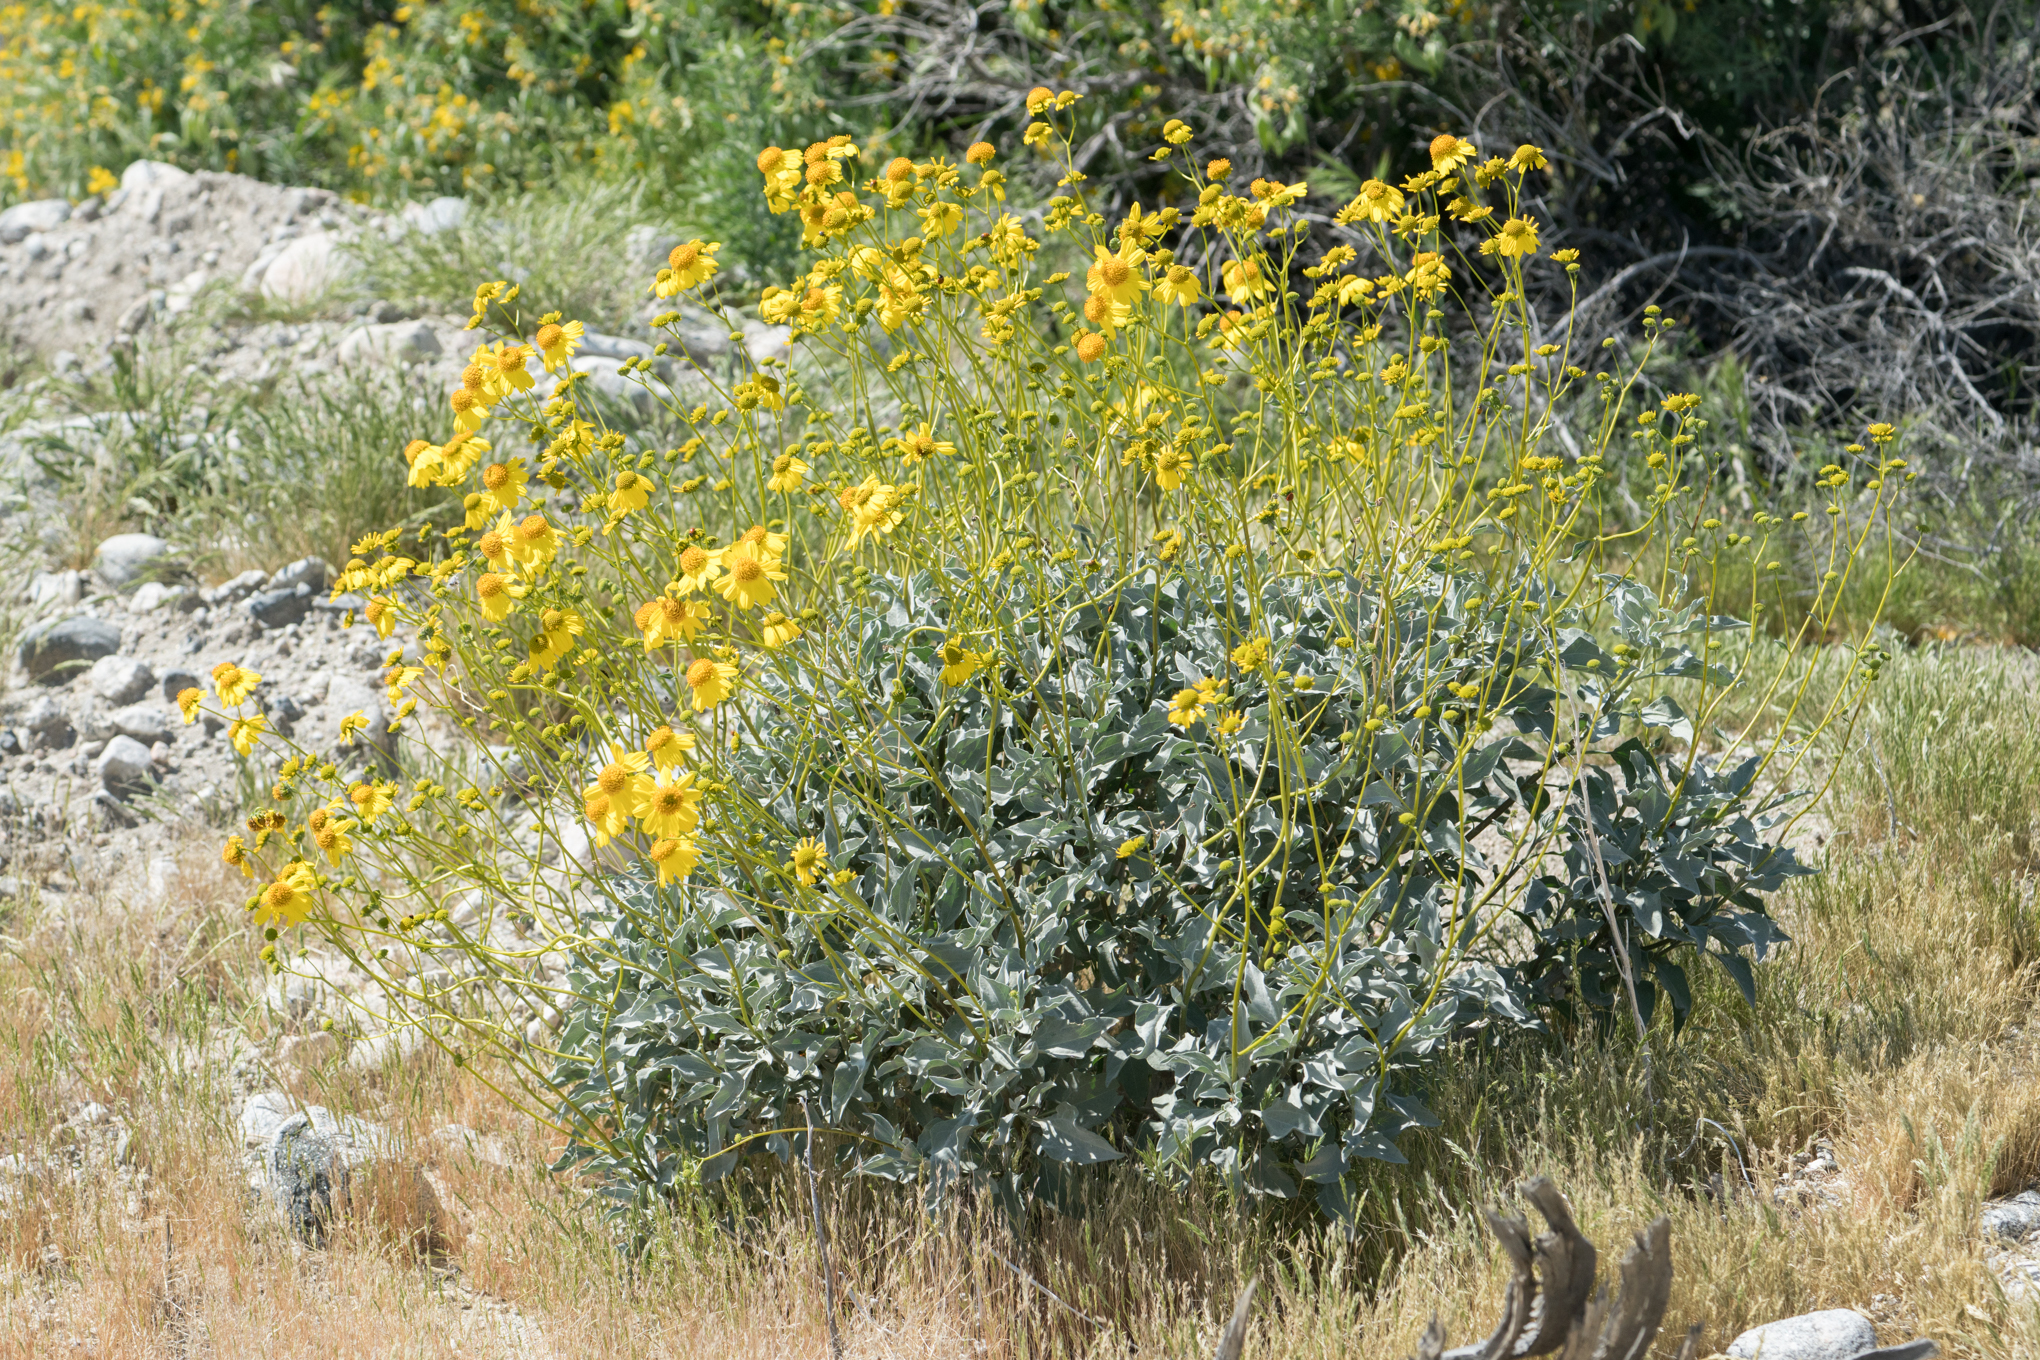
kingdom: Plantae
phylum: Tracheophyta
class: Magnoliopsida
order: Asterales
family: Asteraceae
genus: Encelia
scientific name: Encelia farinosa
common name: Brittlebush
